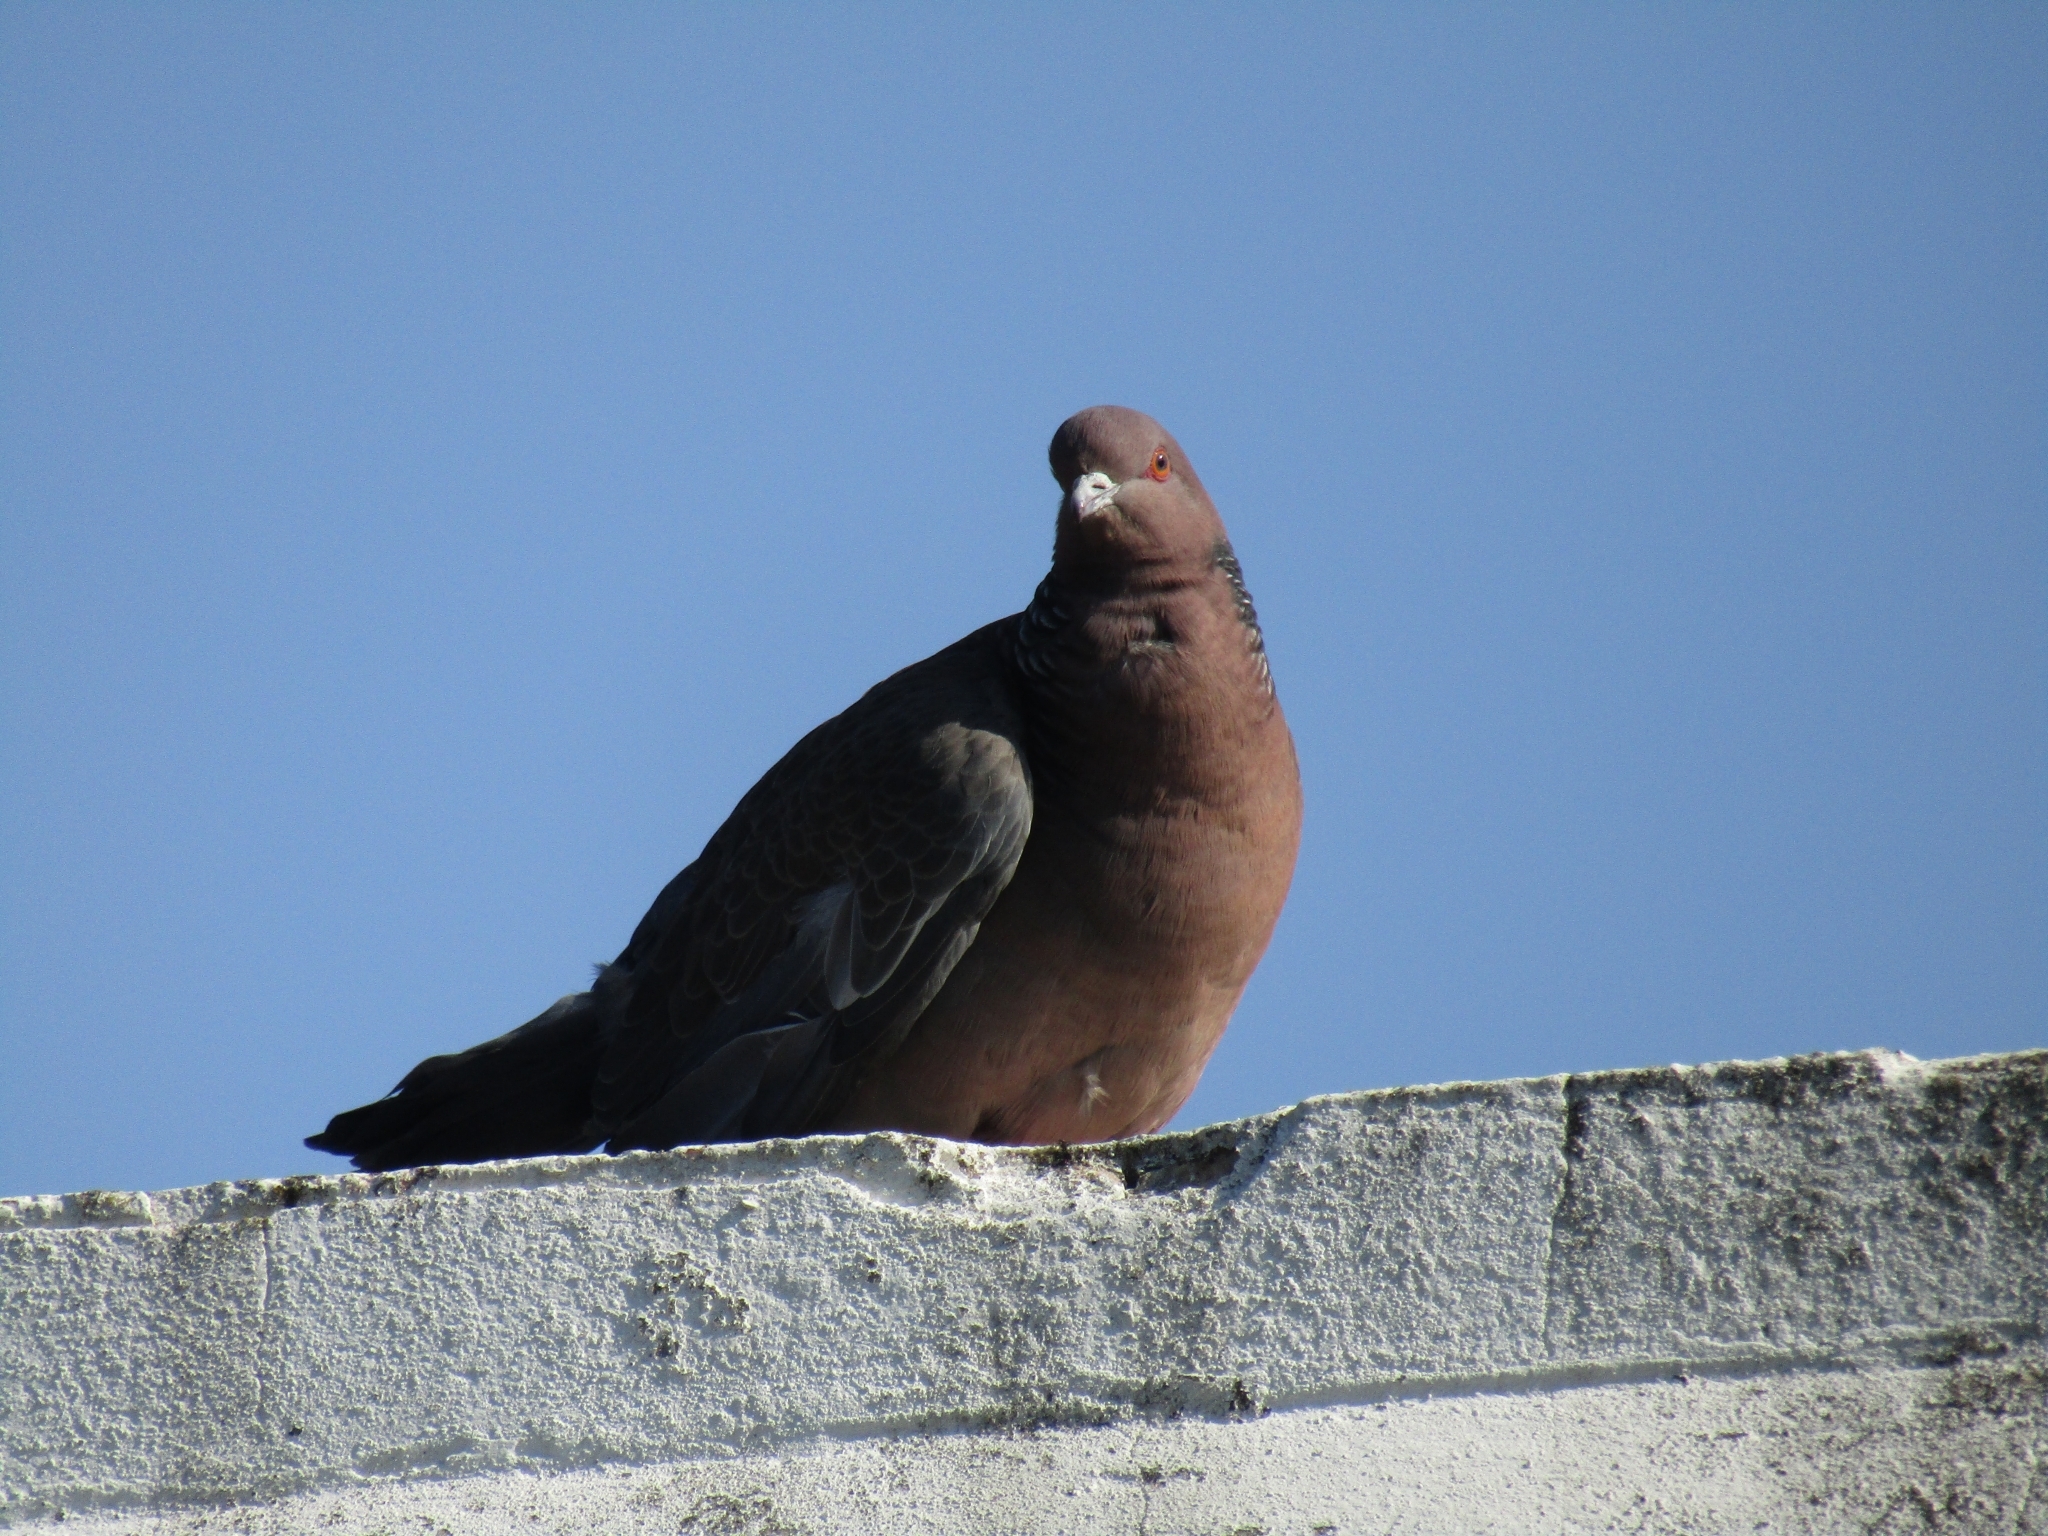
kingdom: Animalia
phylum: Chordata
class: Aves
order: Columbiformes
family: Columbidae
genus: Patagioenas
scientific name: Patagioenas picazuro
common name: Picazuro pigeon
